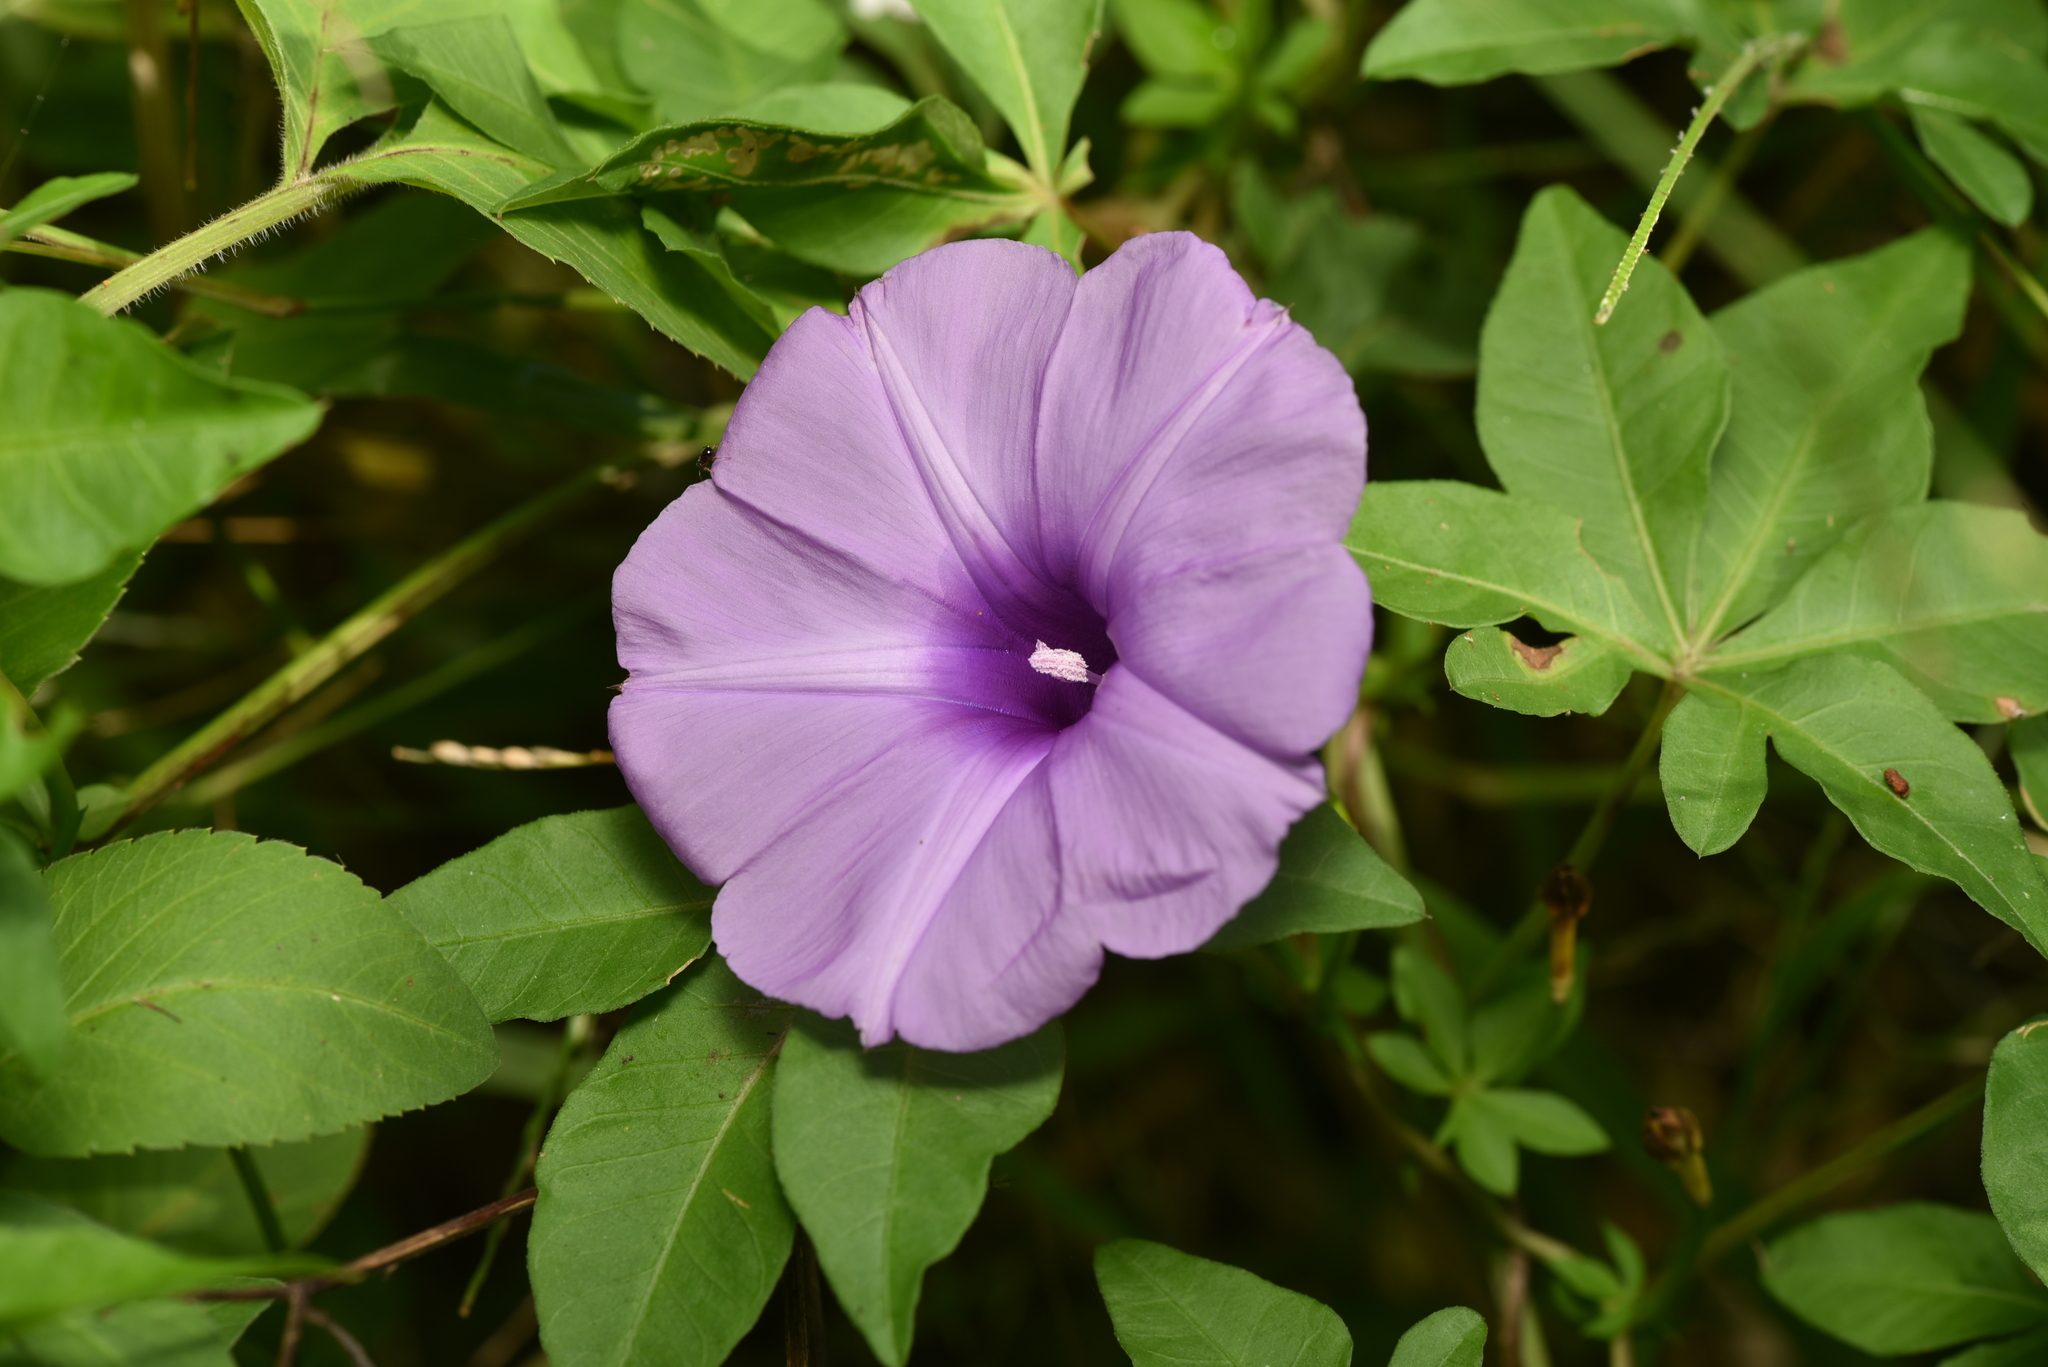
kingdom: Plantae
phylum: Tracheophyta
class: Magnoliopsida
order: Solanales
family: Convolvulaceae
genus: Ipomoea
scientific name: Ipomoea cairica
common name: Mile a minute vine
